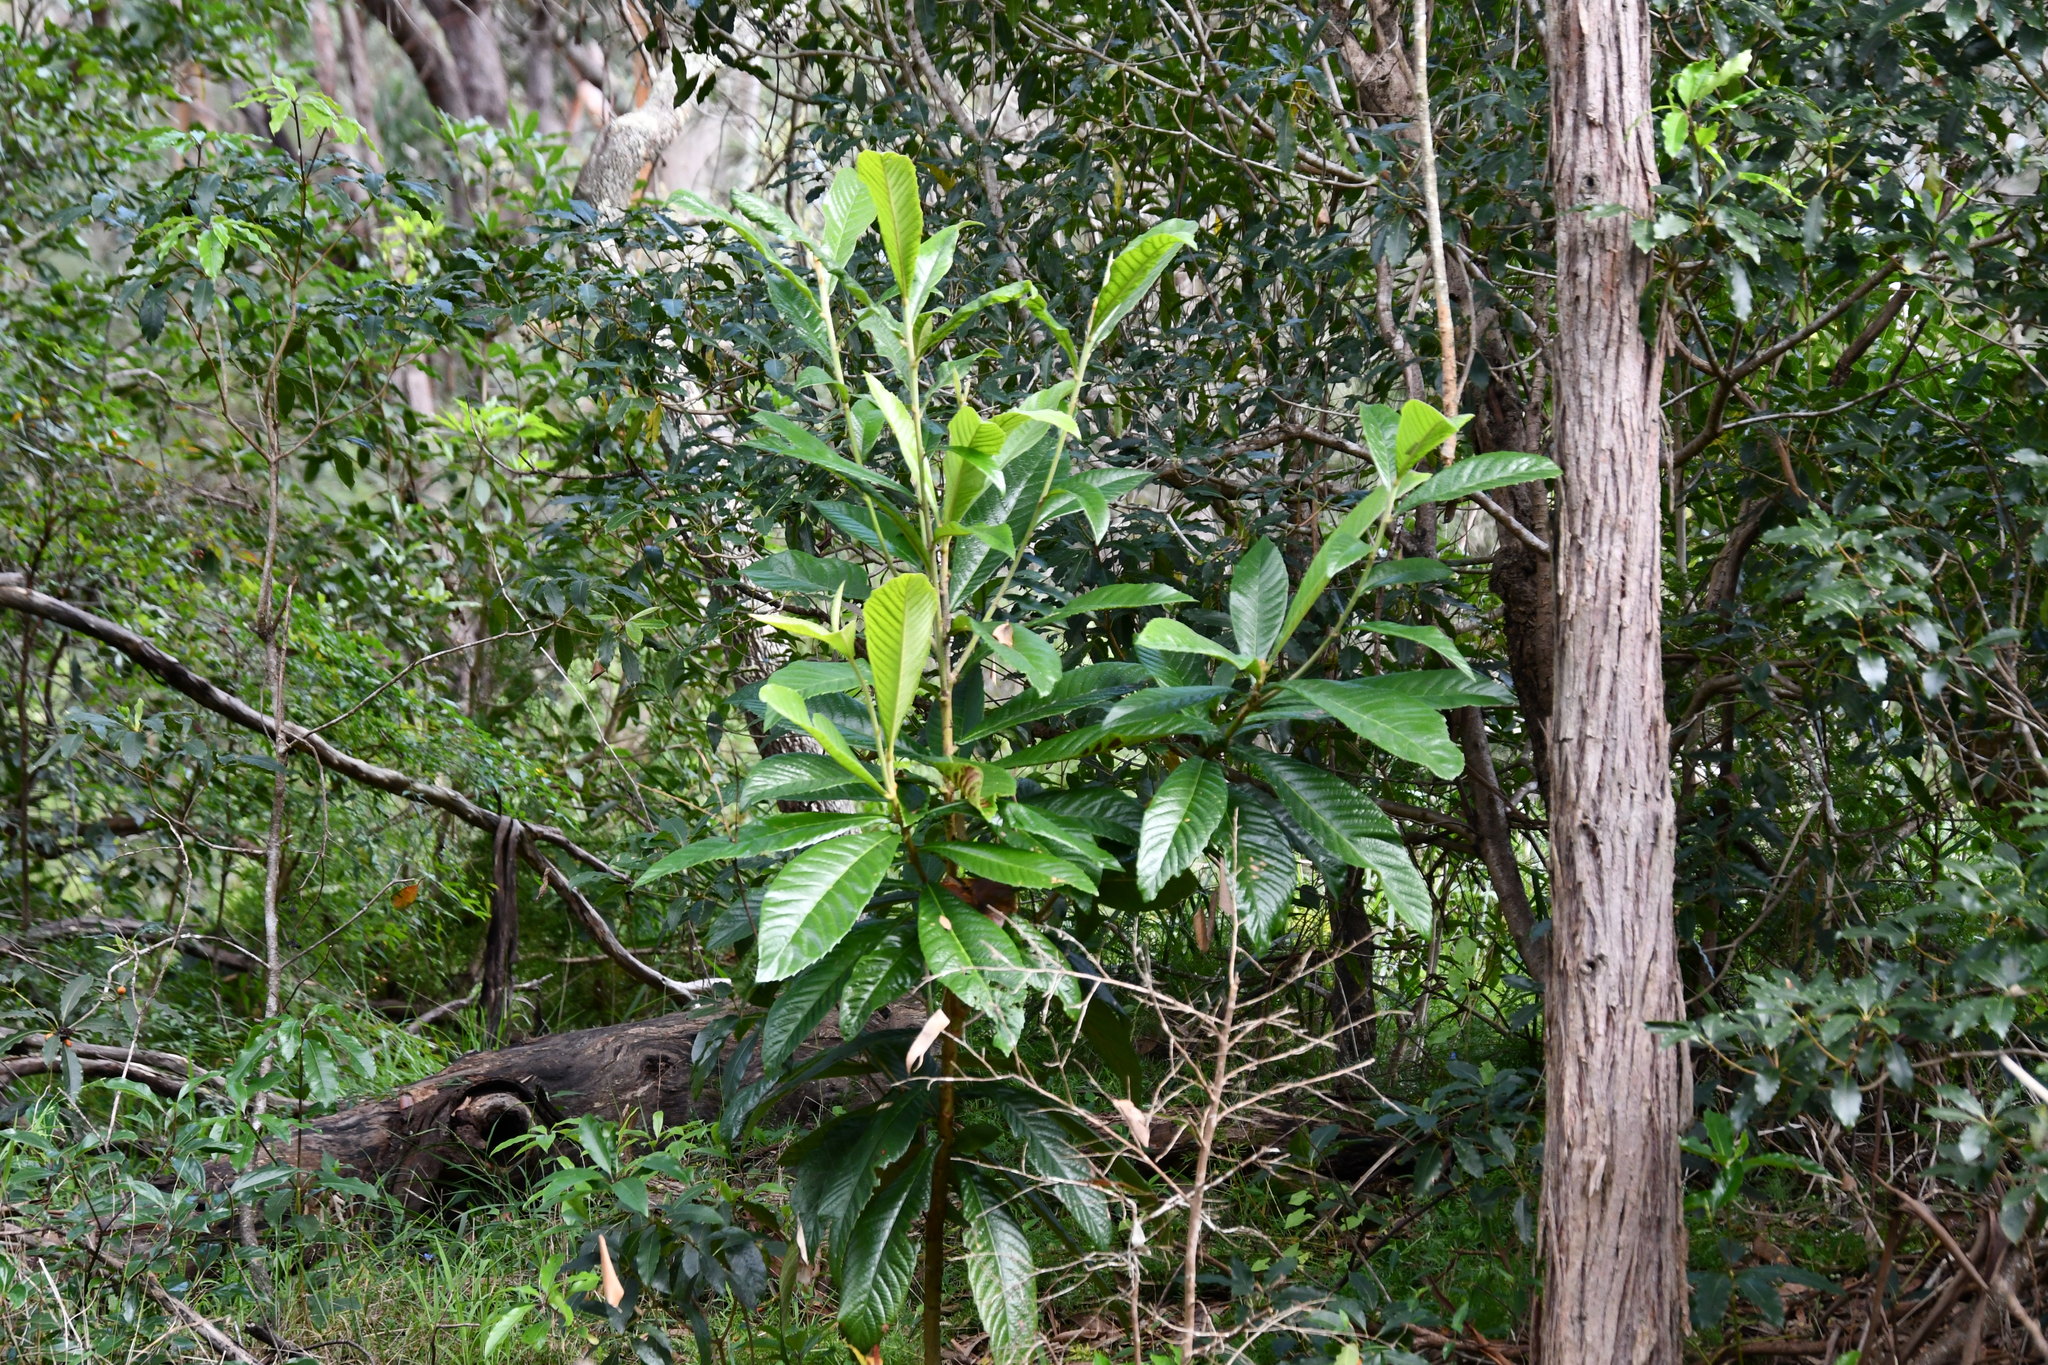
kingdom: Plantae
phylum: Tracheophyta
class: Magnoliopsida
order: Rosales
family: Rosaceae
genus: Rhaphiolepis
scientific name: Rhaphiolepis bibas
